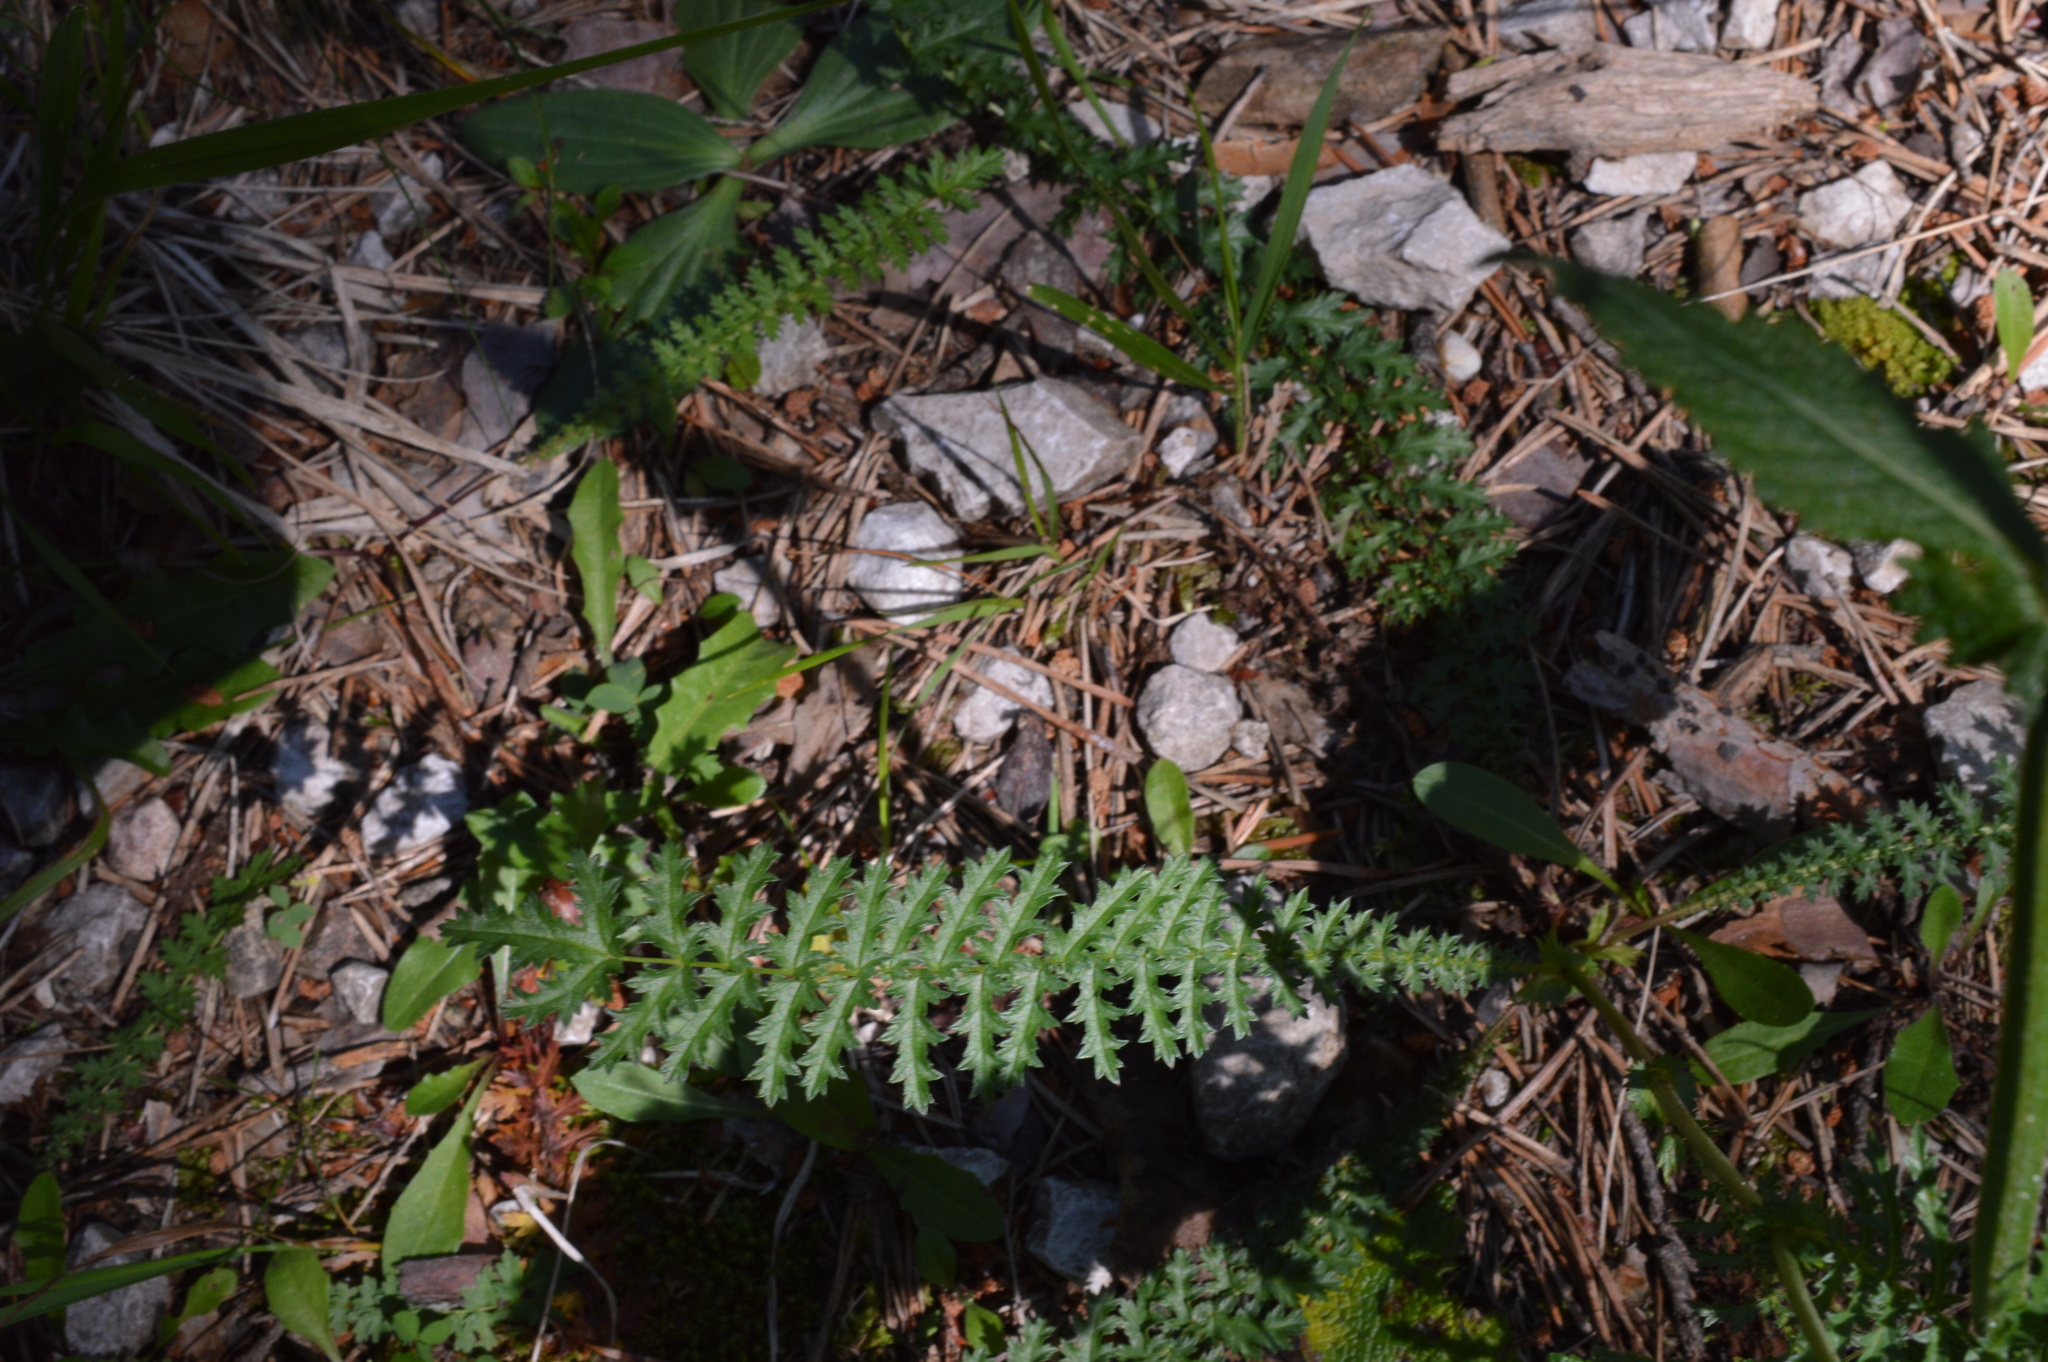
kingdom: Plantae
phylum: Tracheophyta
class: Magnoliopsida
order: Rosales
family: Rosaceae
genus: Filipendula
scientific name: Filipendula vulgaris
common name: Dropwort
